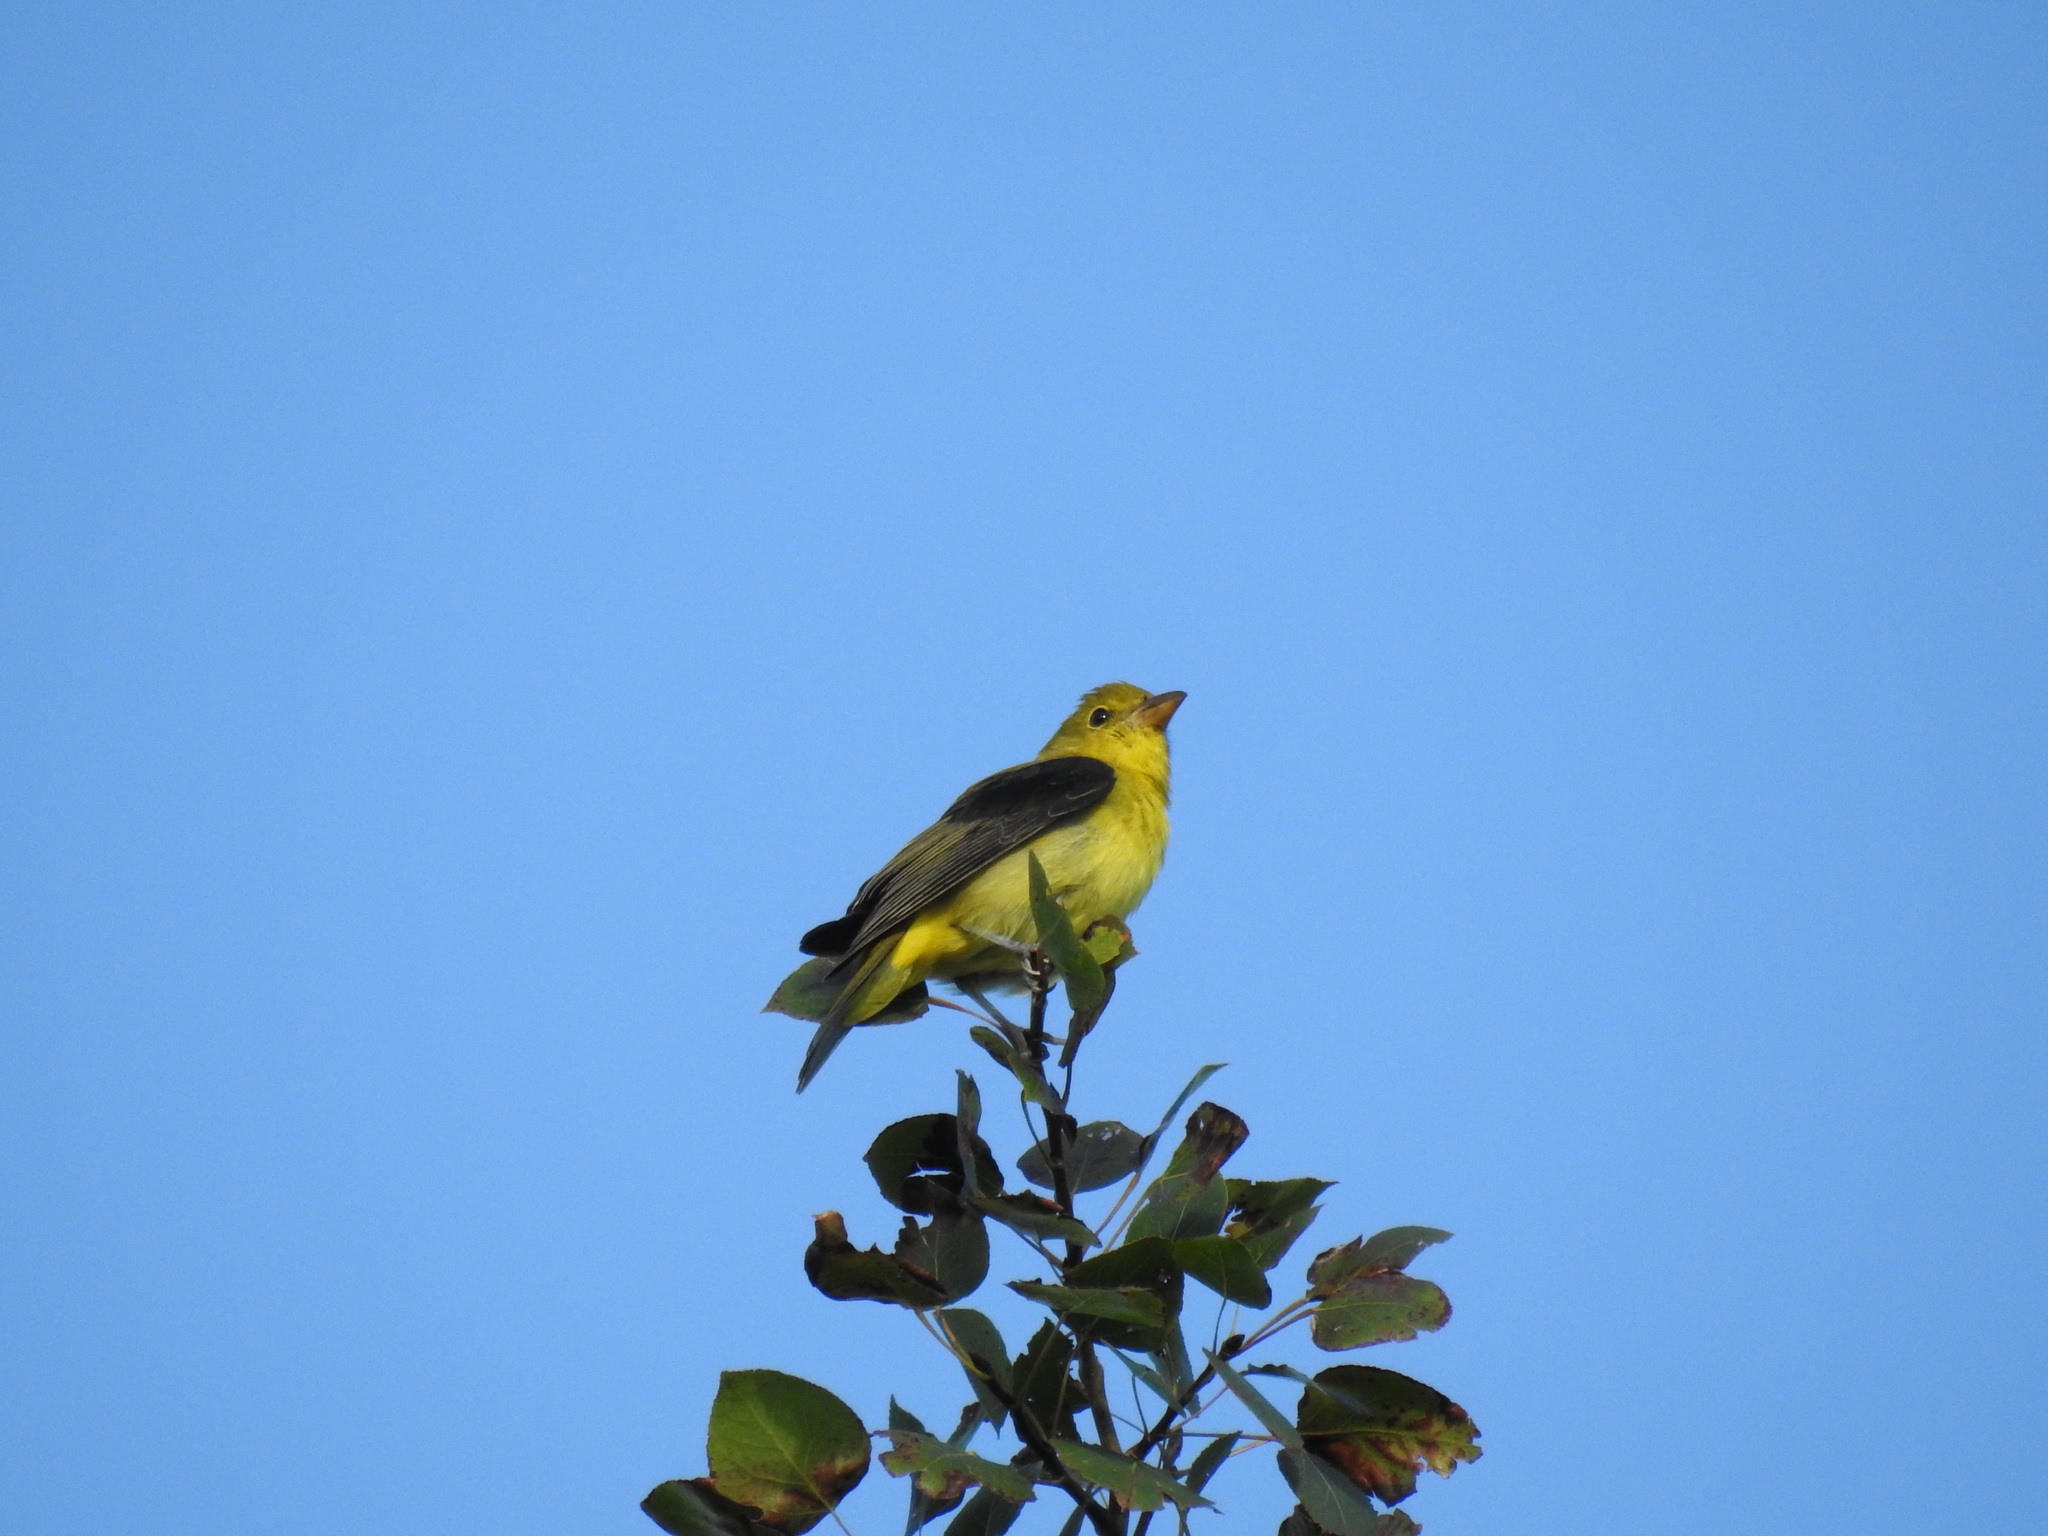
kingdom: Animalia
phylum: Chordata
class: Aves
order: Passeriformes
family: Cardinalidae
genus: Piranga
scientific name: Piranga olivacea
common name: Scarlet tanager
